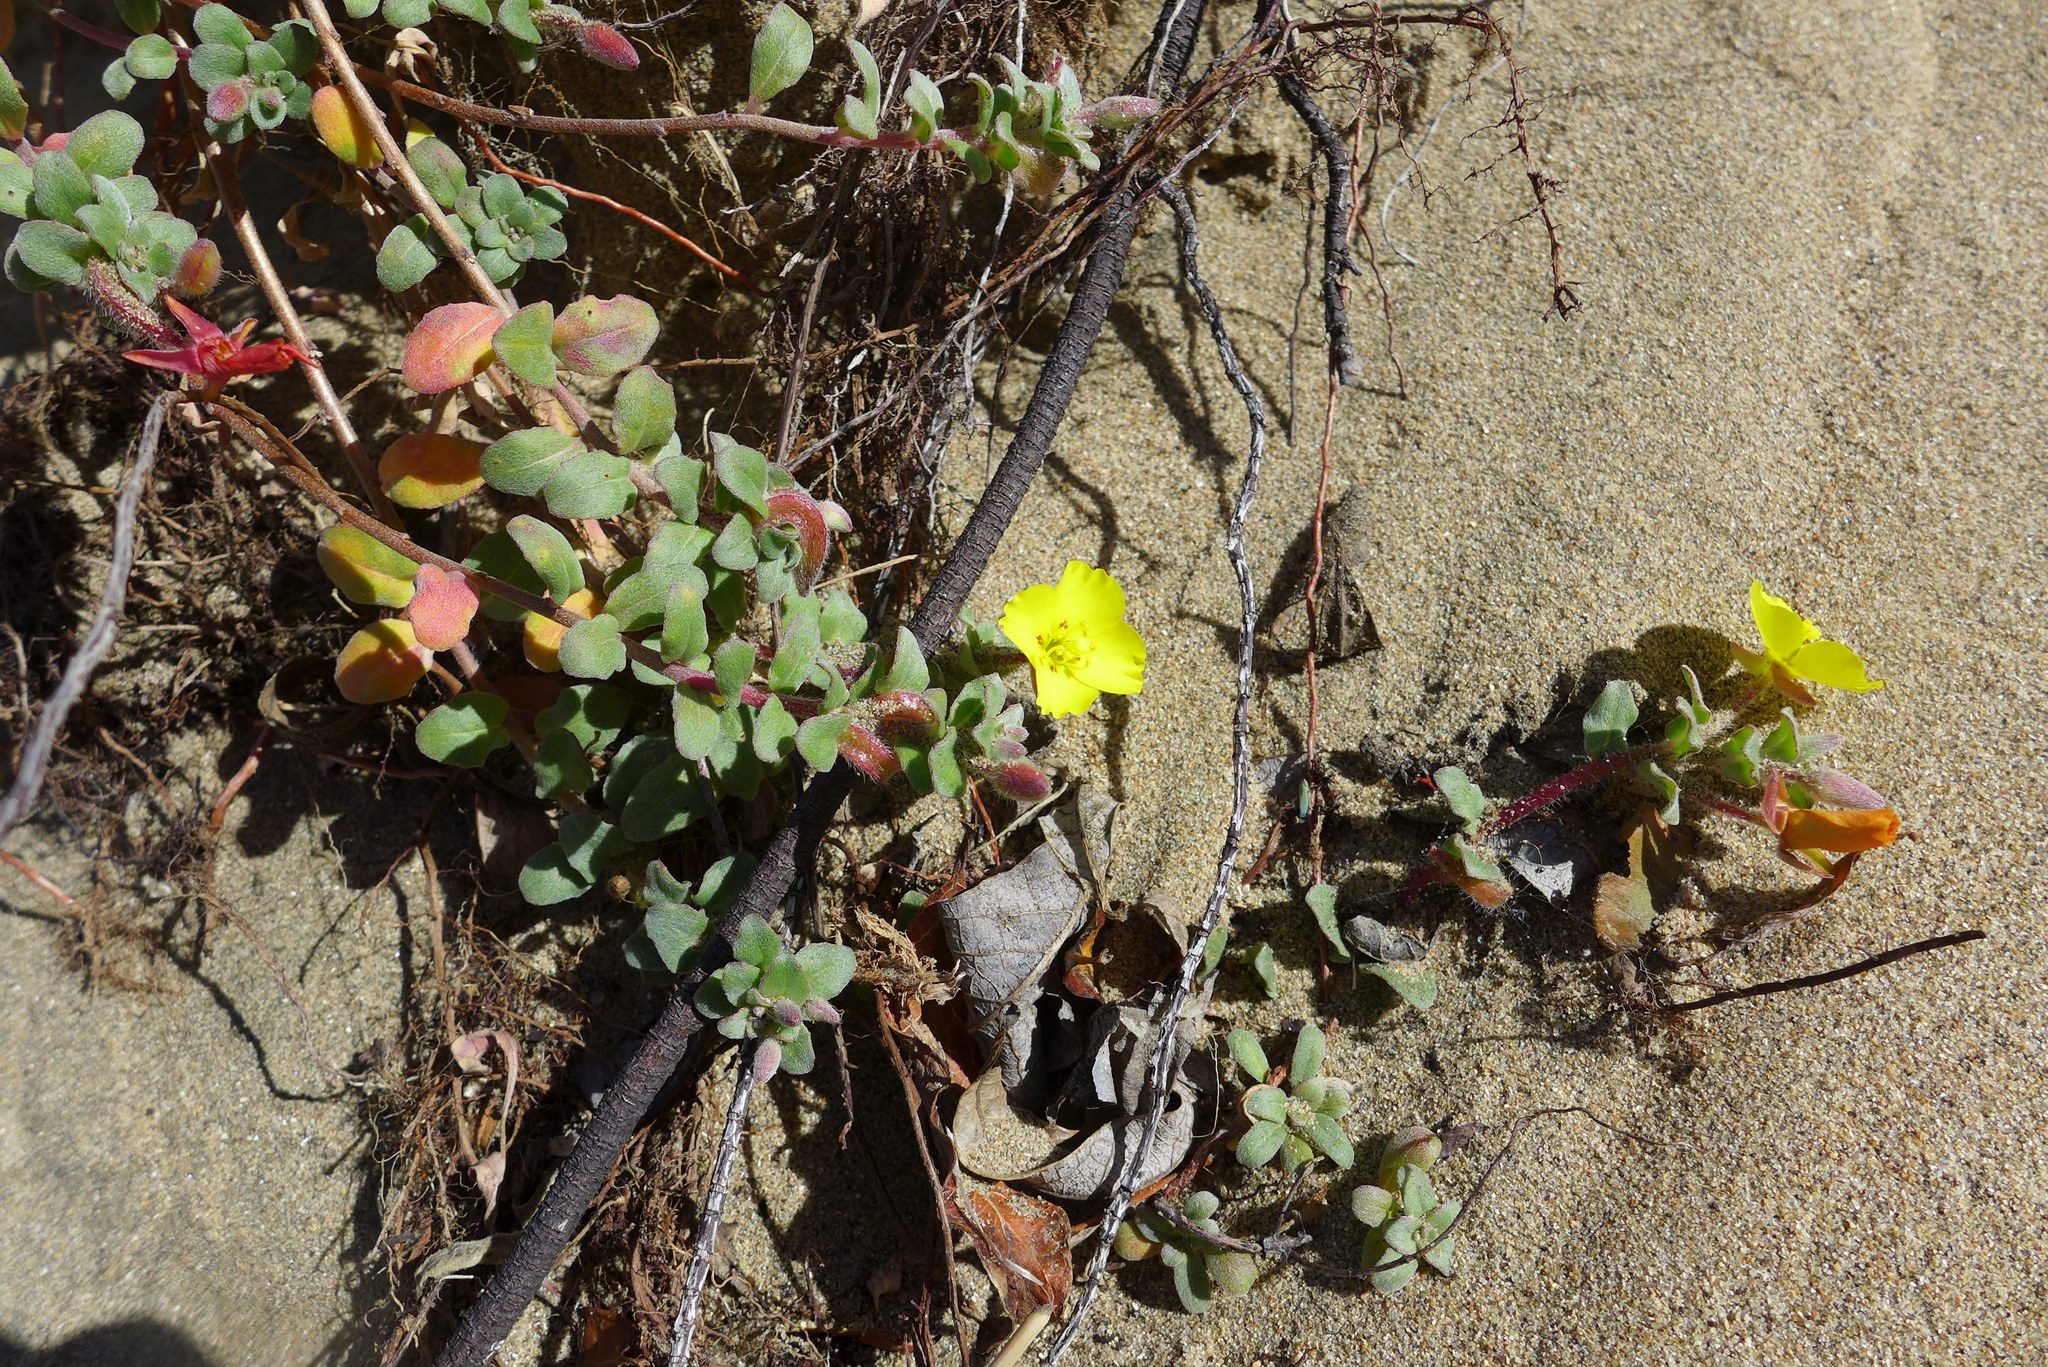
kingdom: Plantae
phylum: Tracheophyta
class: Magnoliopsida
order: Myrtales
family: Onagraceae
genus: Camissoniopsis
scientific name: Camissoniopsis cheiranthifolia
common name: Beach suncup
